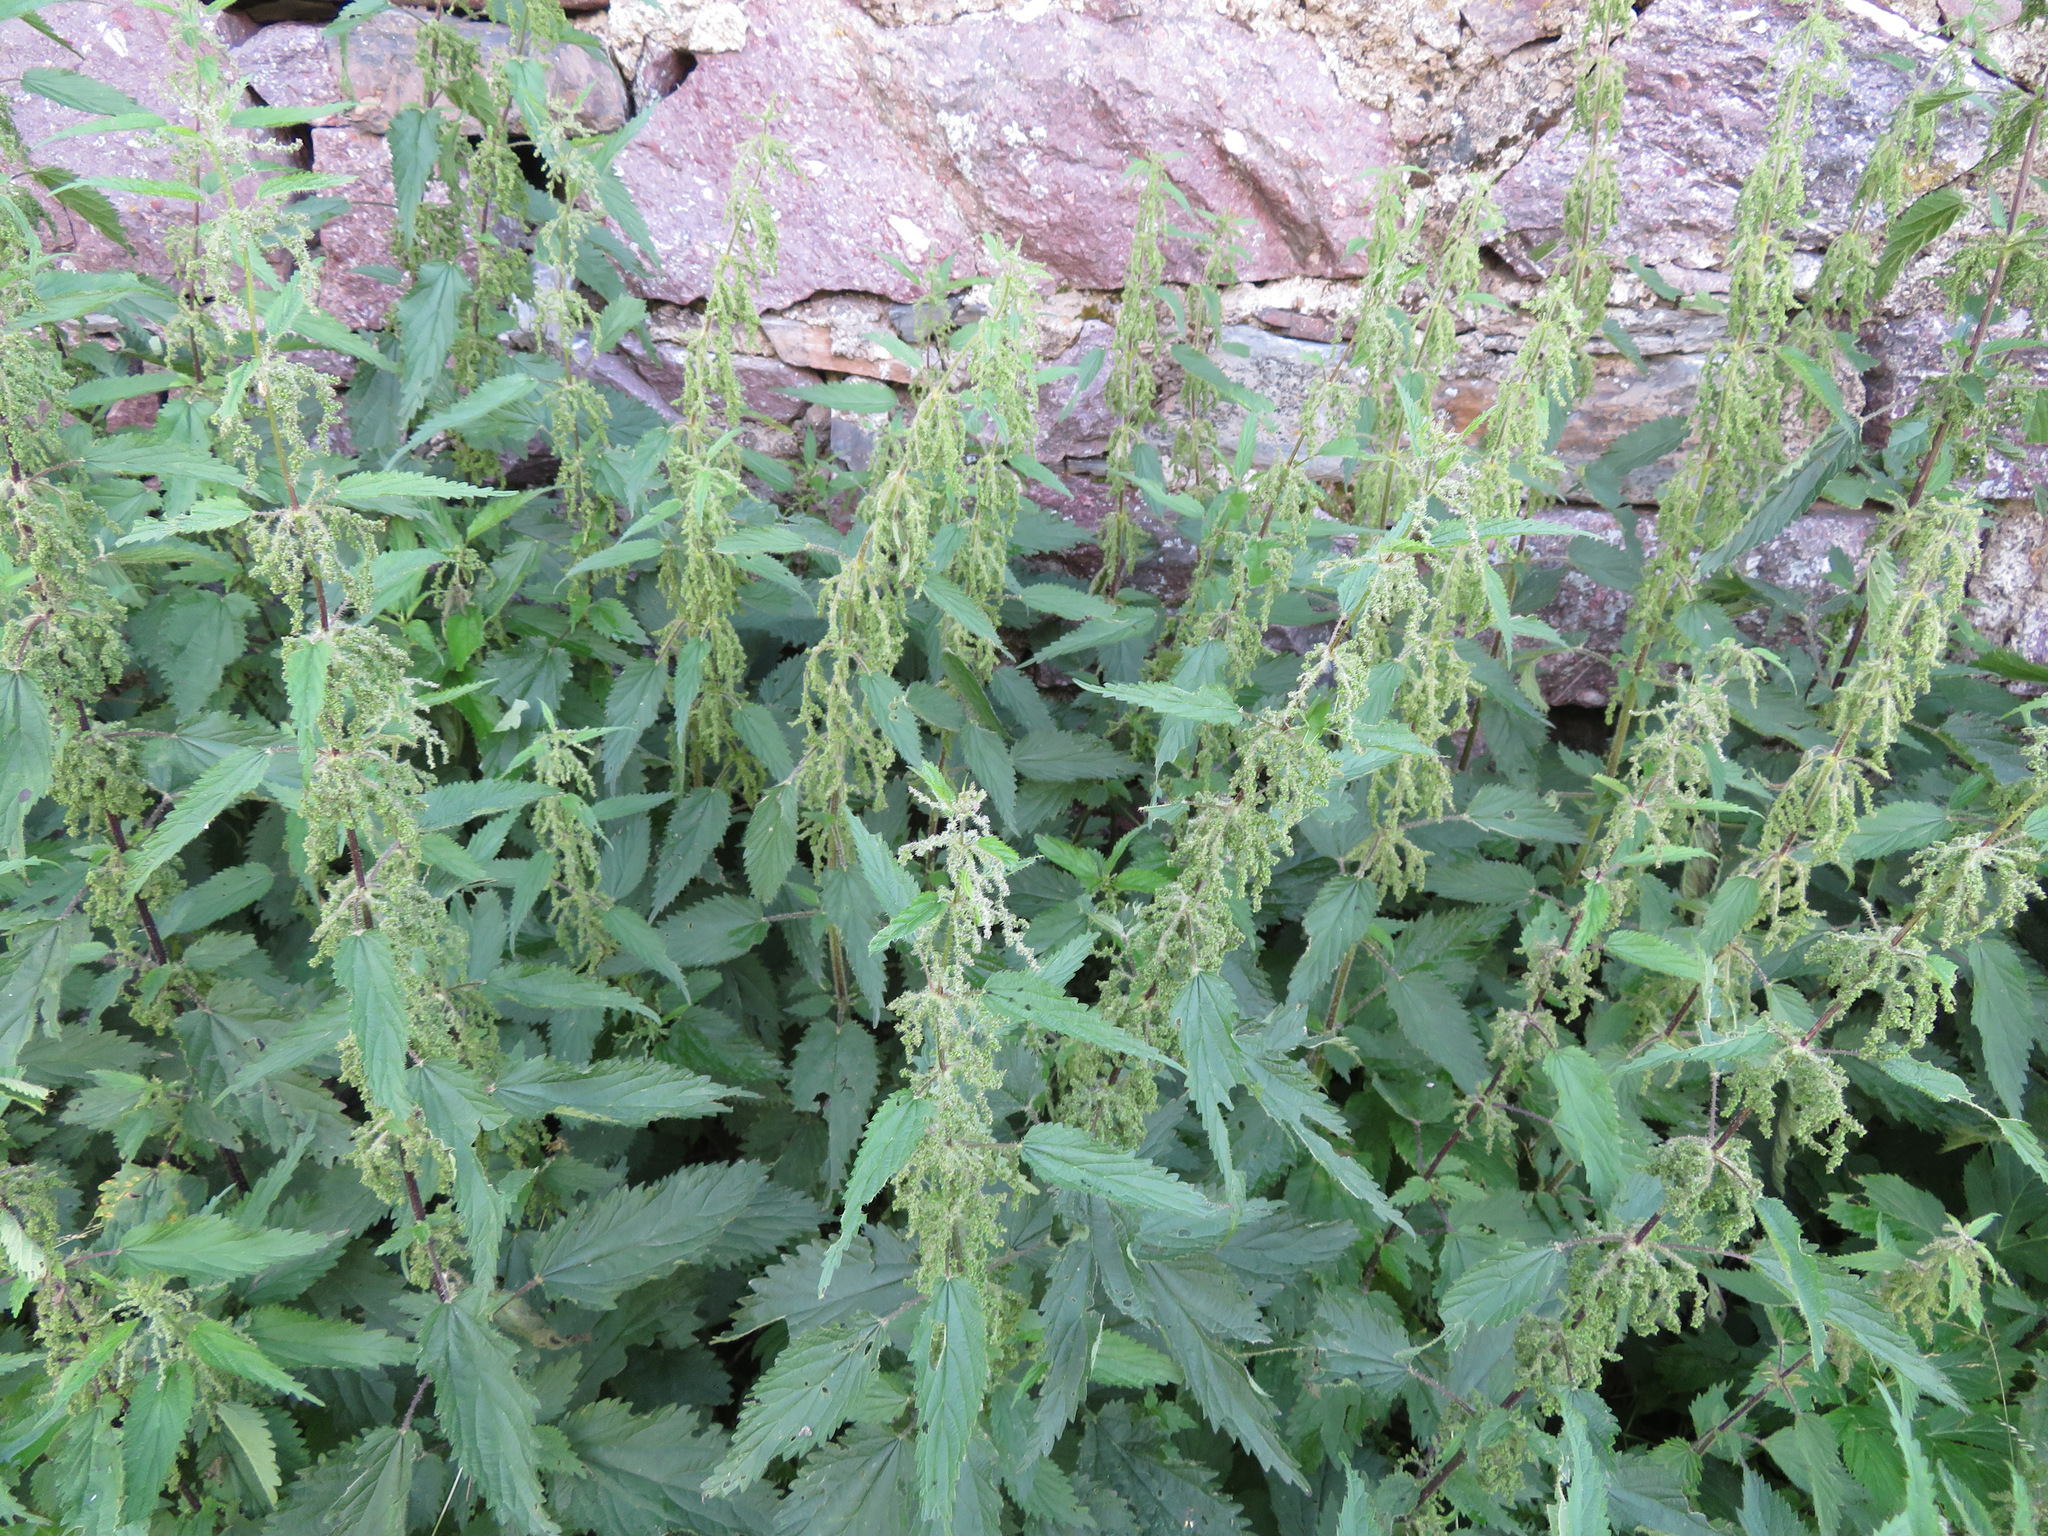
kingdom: Plantae
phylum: Tracheophyta
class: Magnoliopsida
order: Rosales
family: Urticaceae
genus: Urtica
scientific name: Urtica dioica
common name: Common nettle
